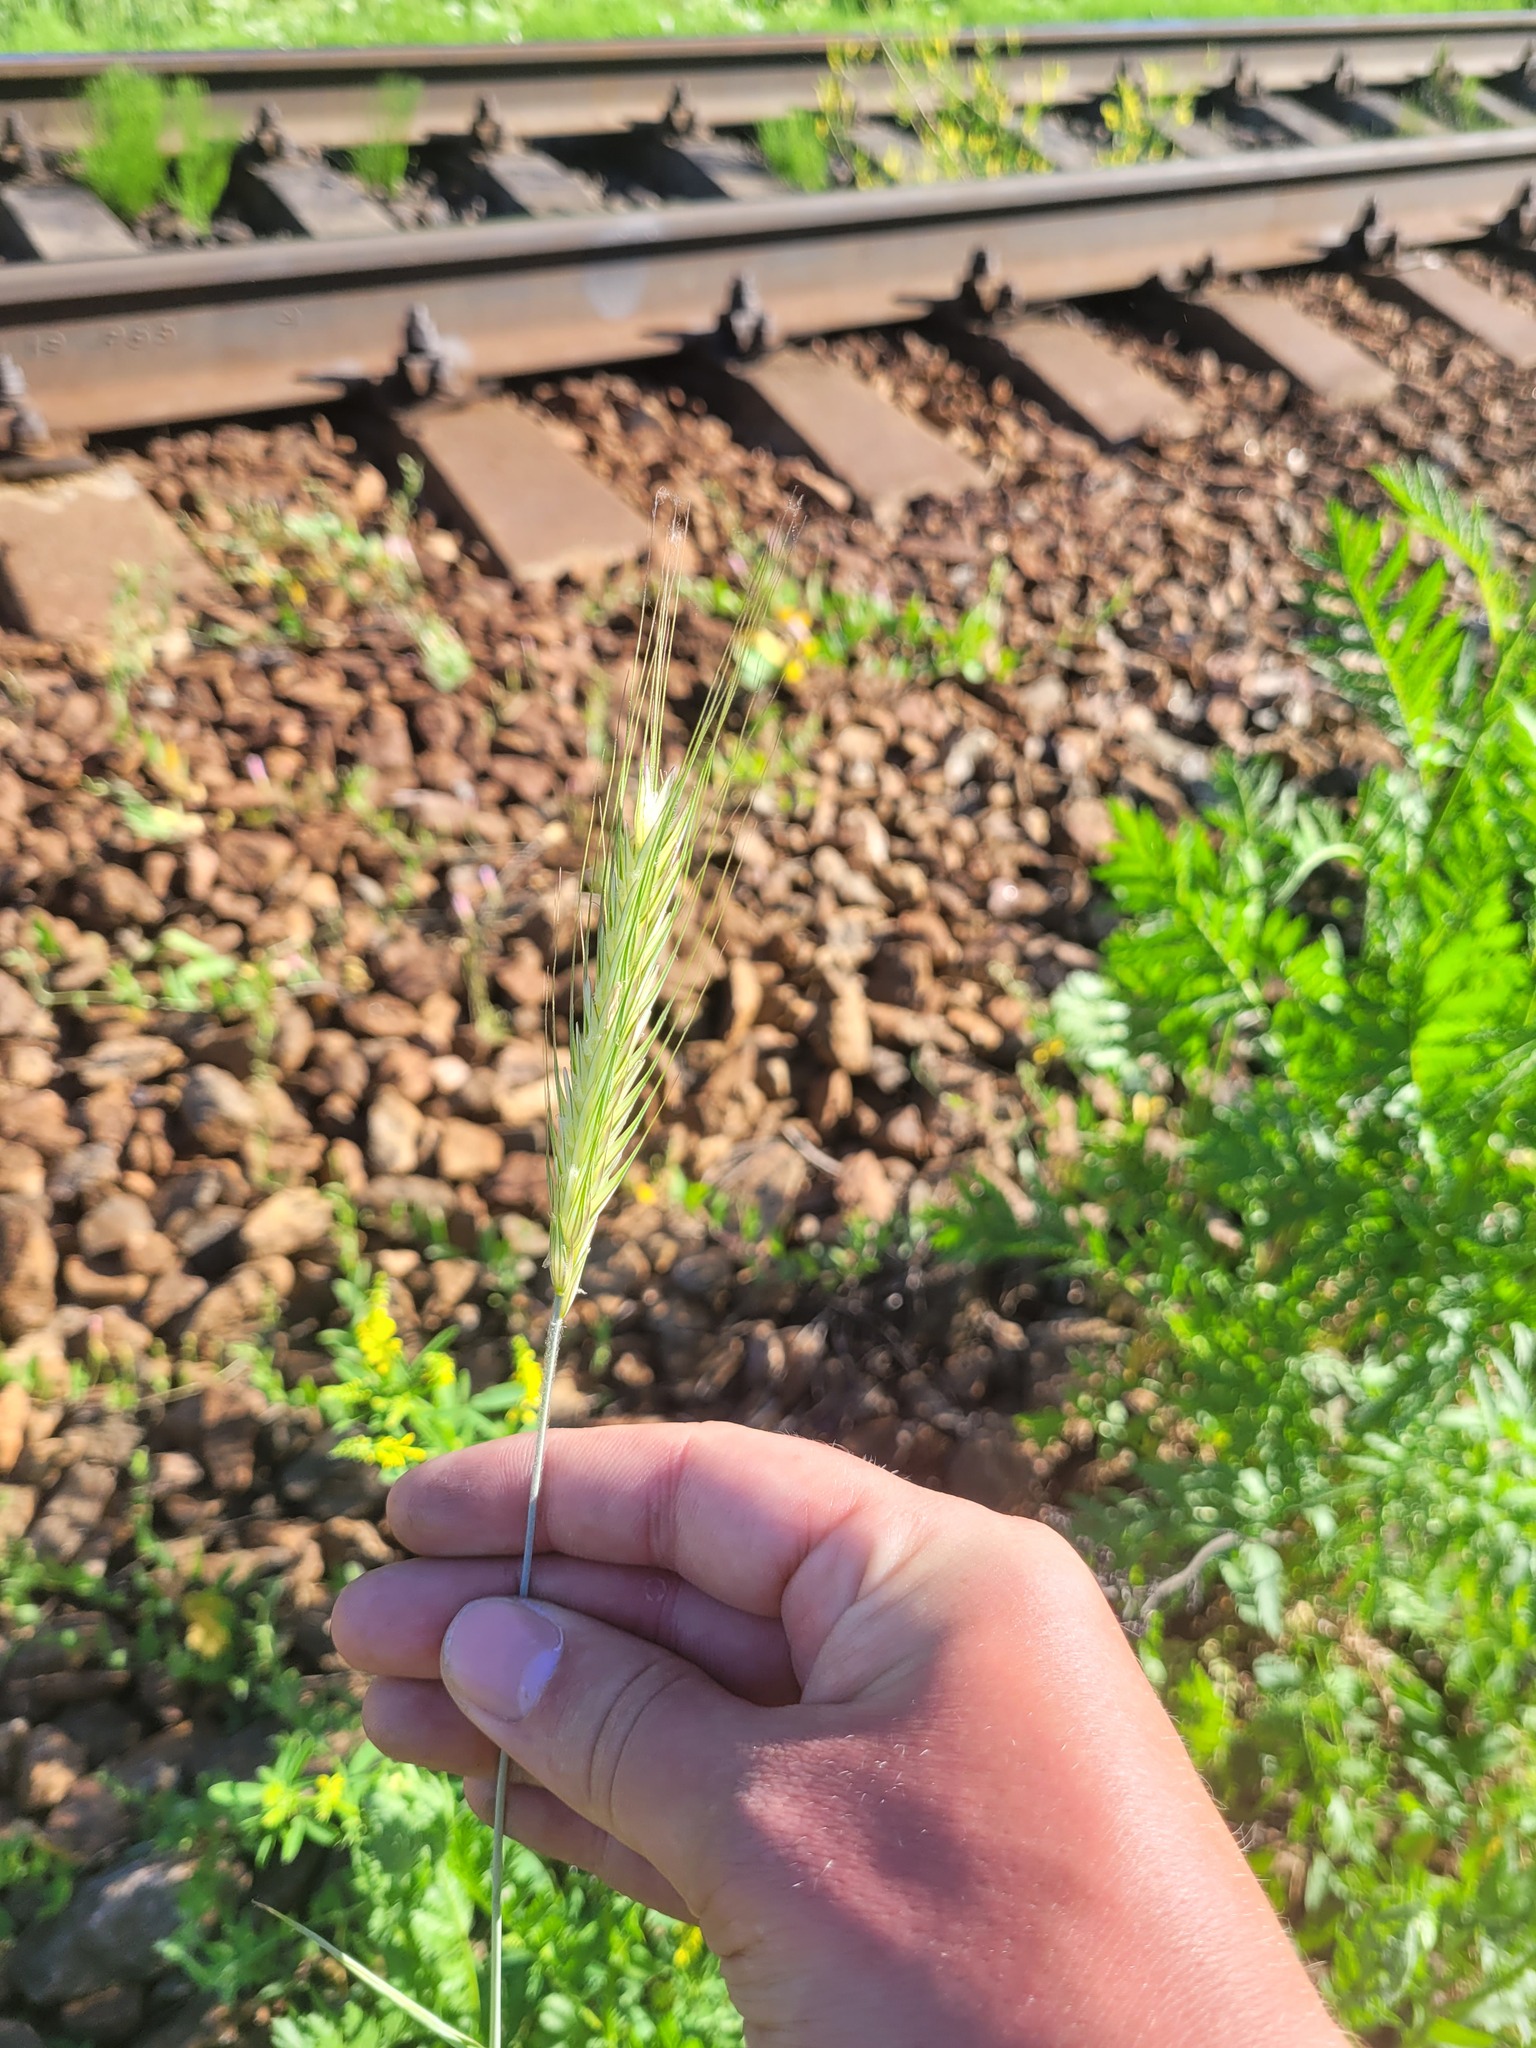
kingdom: Plantae
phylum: Tracheophyta
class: Liliopsida
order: Poales
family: Poaceae
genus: Secale
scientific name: Secale cereale
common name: Rye
